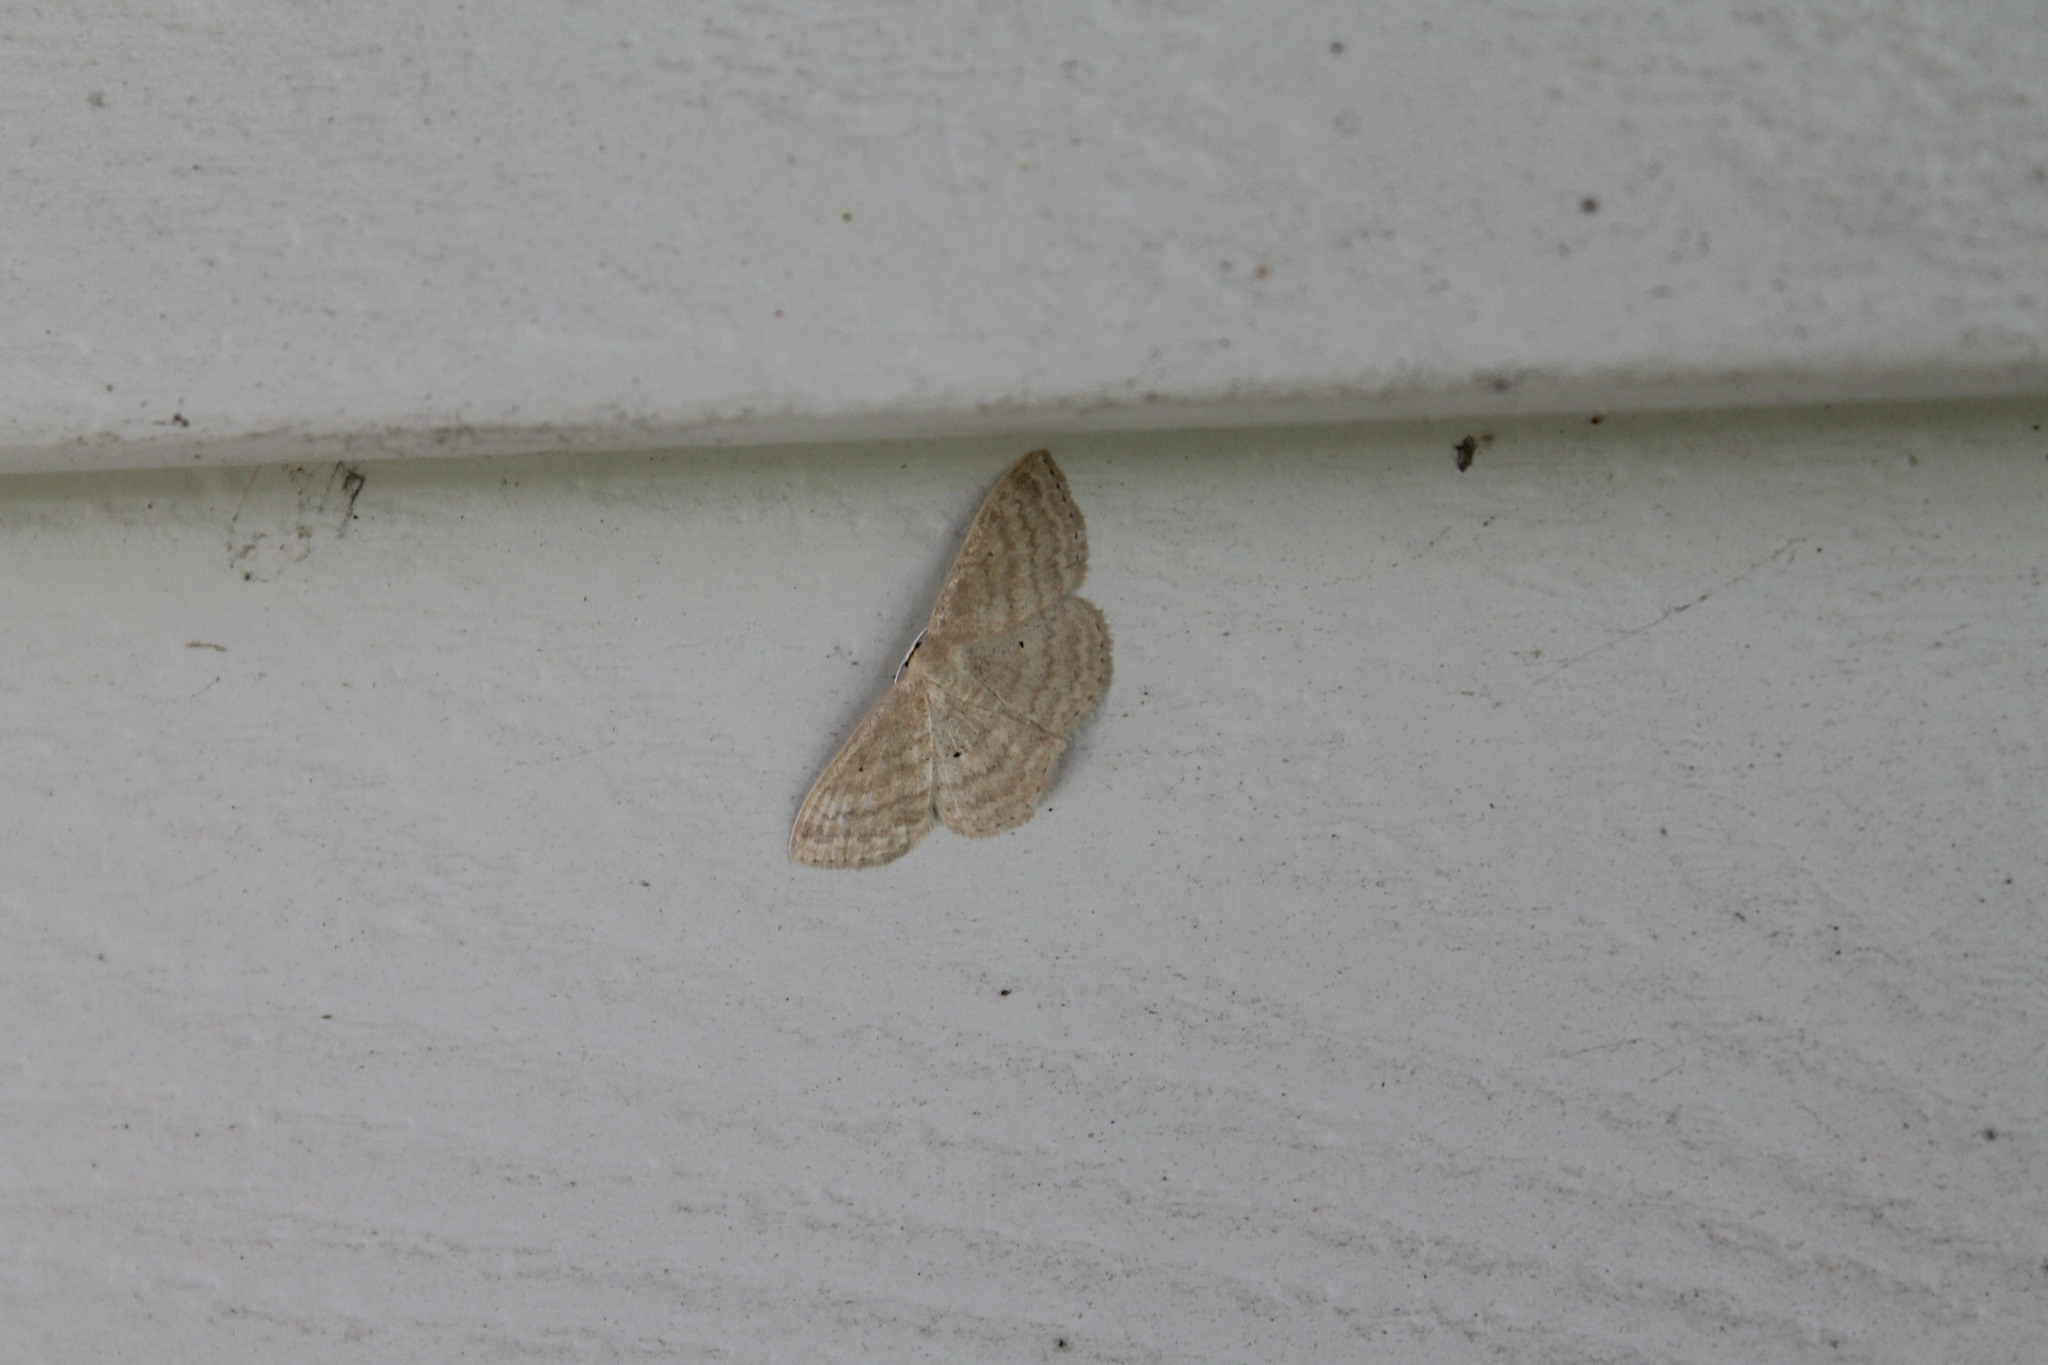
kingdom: Animalia
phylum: Arthropoda
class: Insecta
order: Lepidoptera
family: Geometridae
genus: Scopula
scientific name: Scopula inductata
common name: Soft-lined wave
